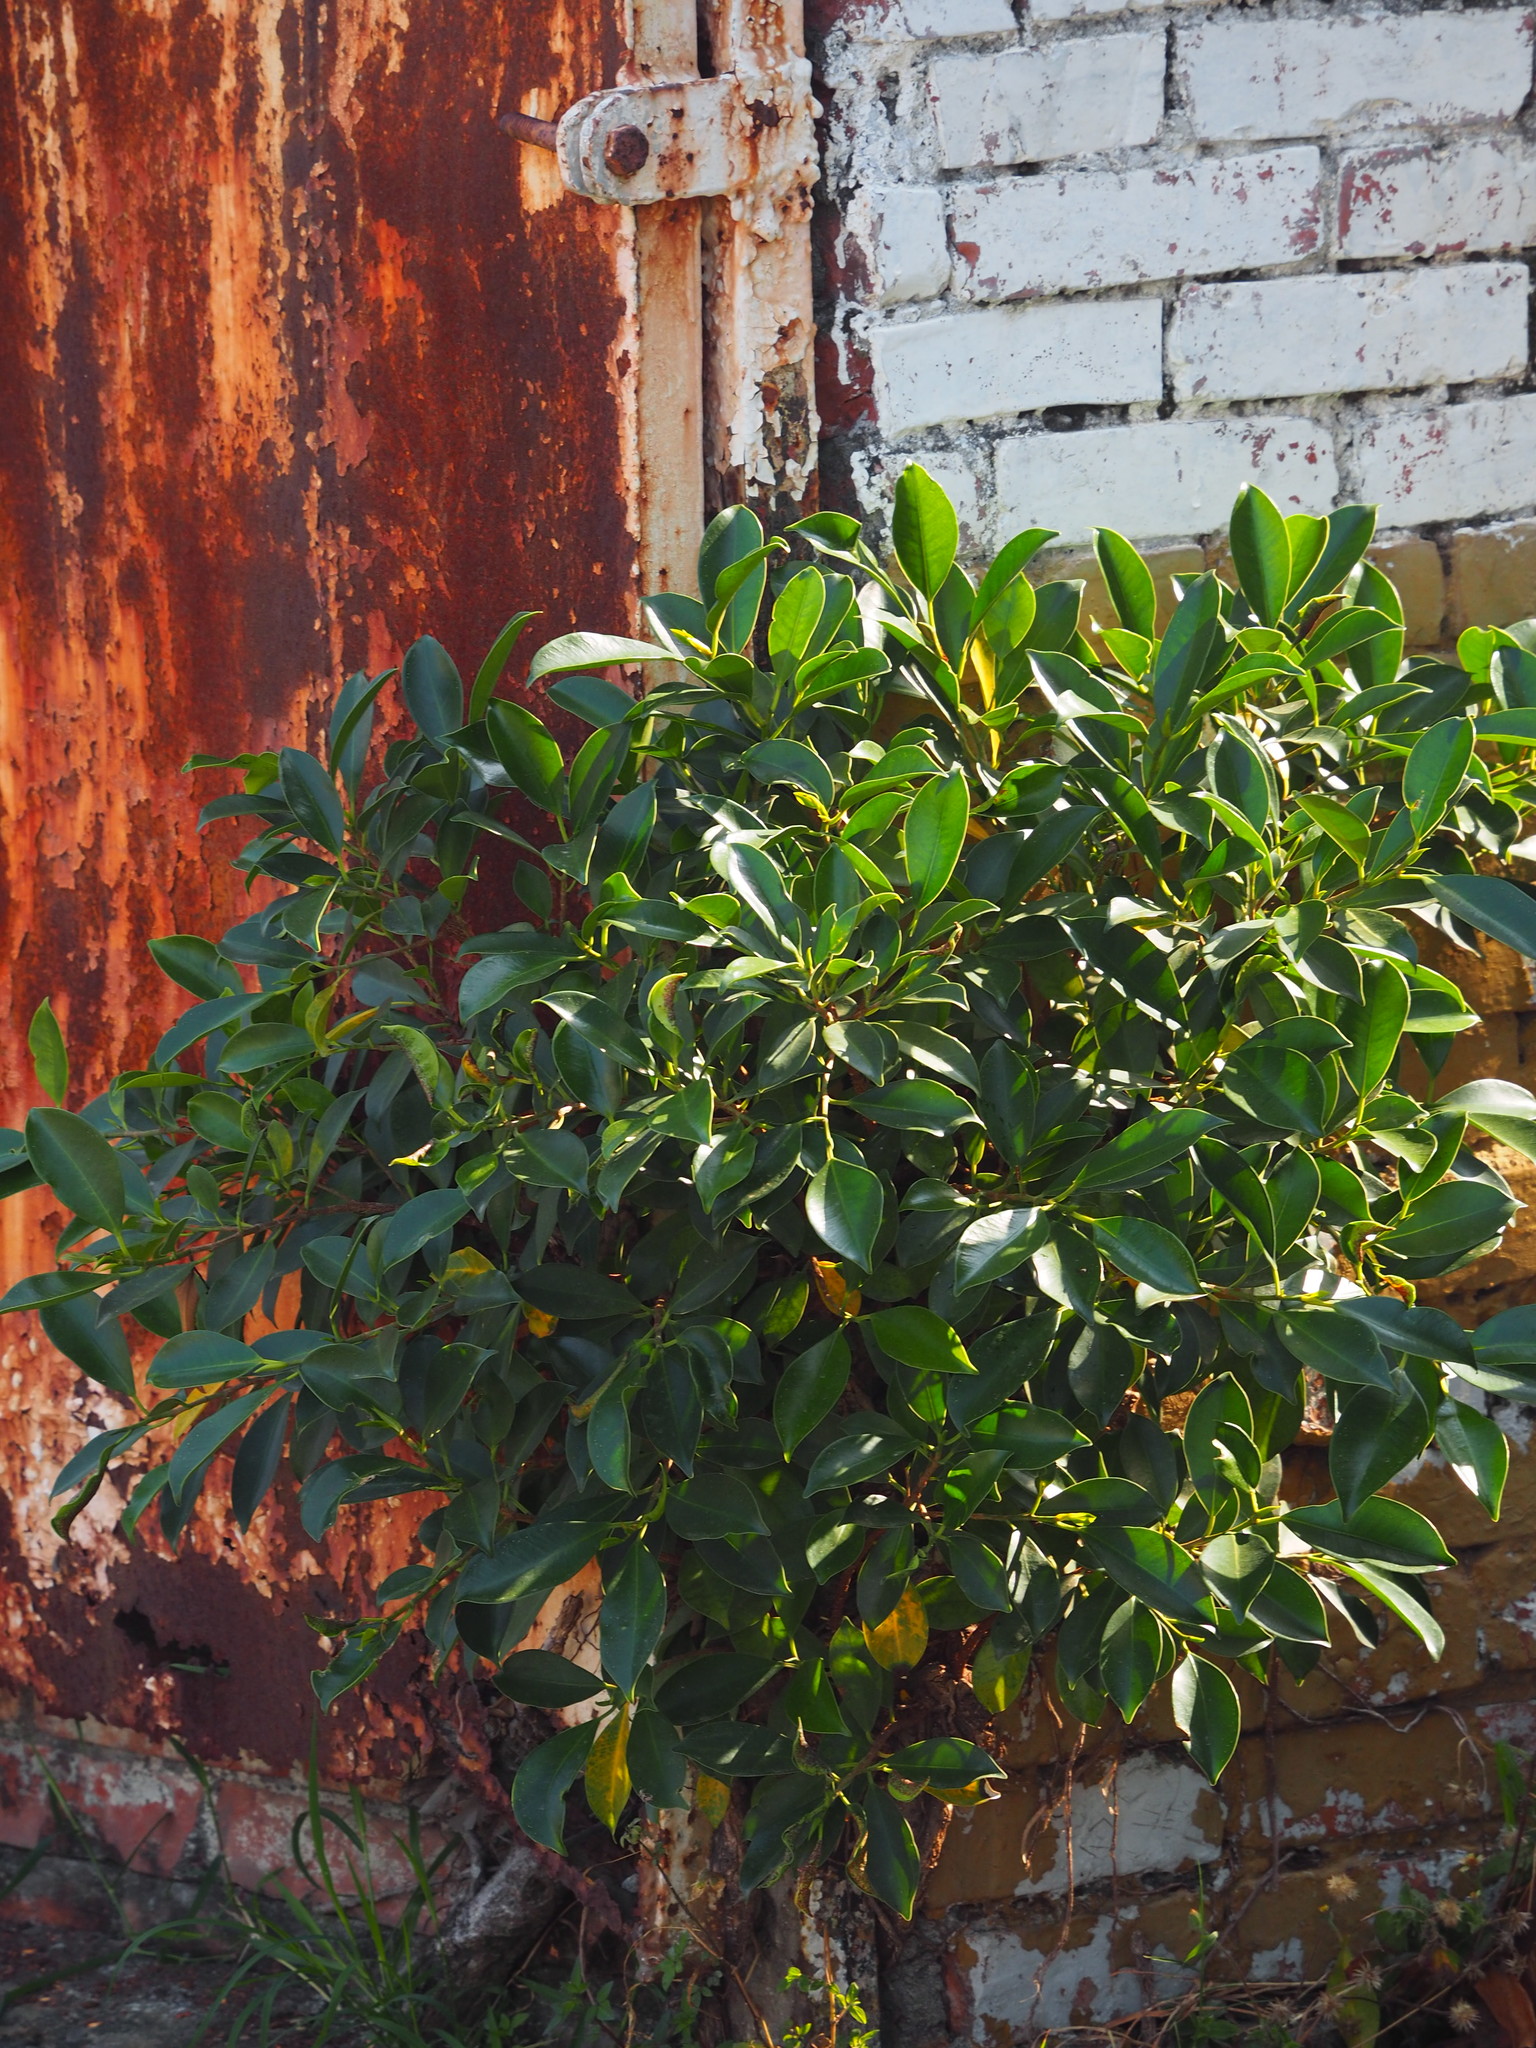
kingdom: Plantae
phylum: Tracheophyta
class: Magnoliopsida
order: Rosales
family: Moraceae
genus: Ficus
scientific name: Ficus microcarpa
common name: Chinese banyan
